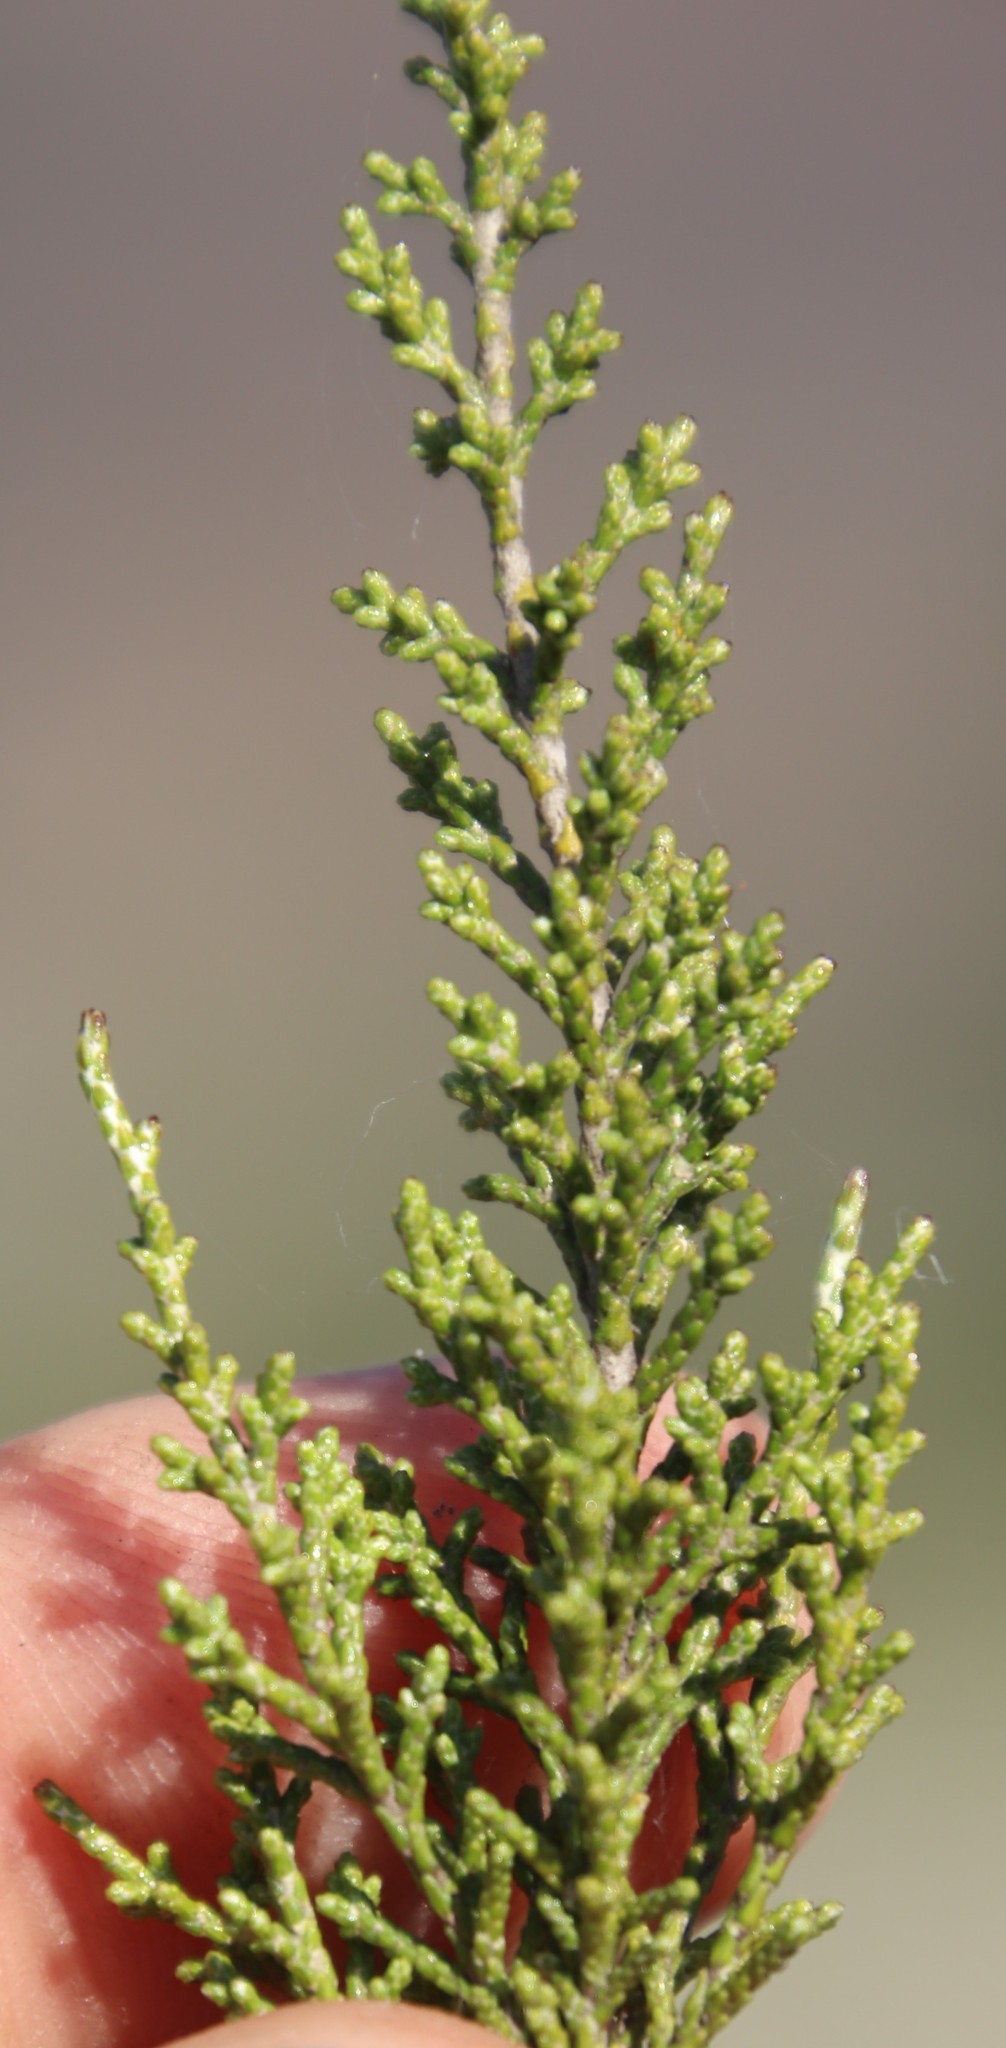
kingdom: Plantae
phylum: Tracheophyta
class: Magnoliopsida
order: Asterales
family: Asteraceae
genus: Dicerothamnus
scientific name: Dicerothamnus rhinocerotis
